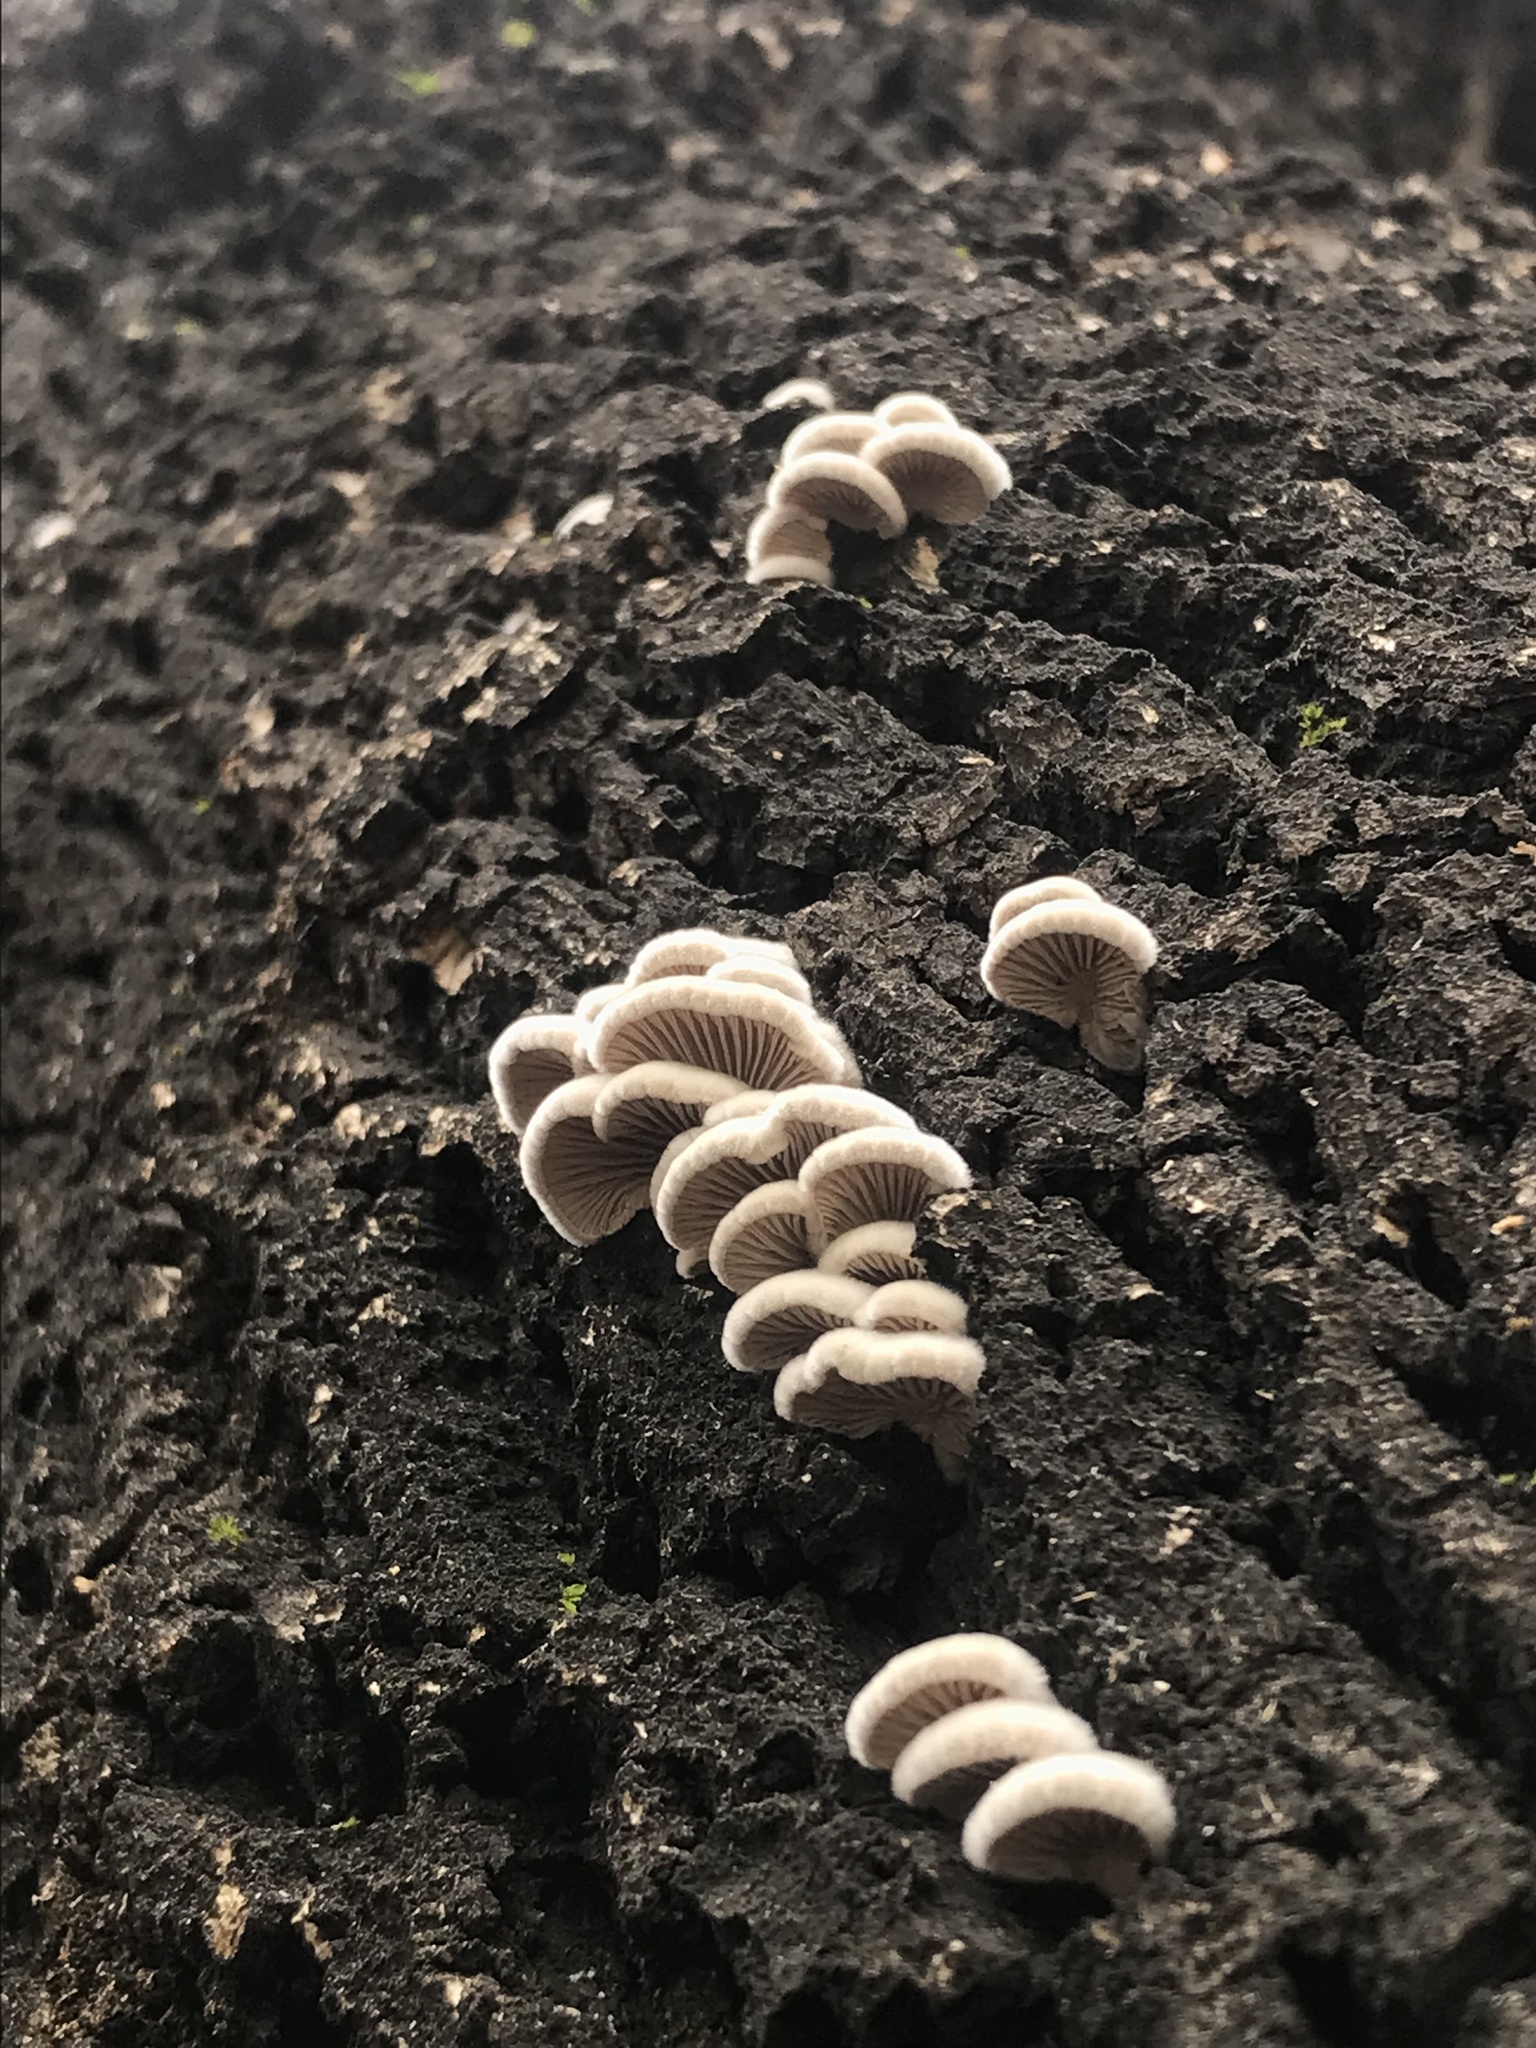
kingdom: Fungi
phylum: Basidiomycota
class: Agaricomycetes
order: Agaricales
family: Schizophyllaceae
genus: Schizophyllum
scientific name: Schizophyllum commune
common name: Common porecrust
